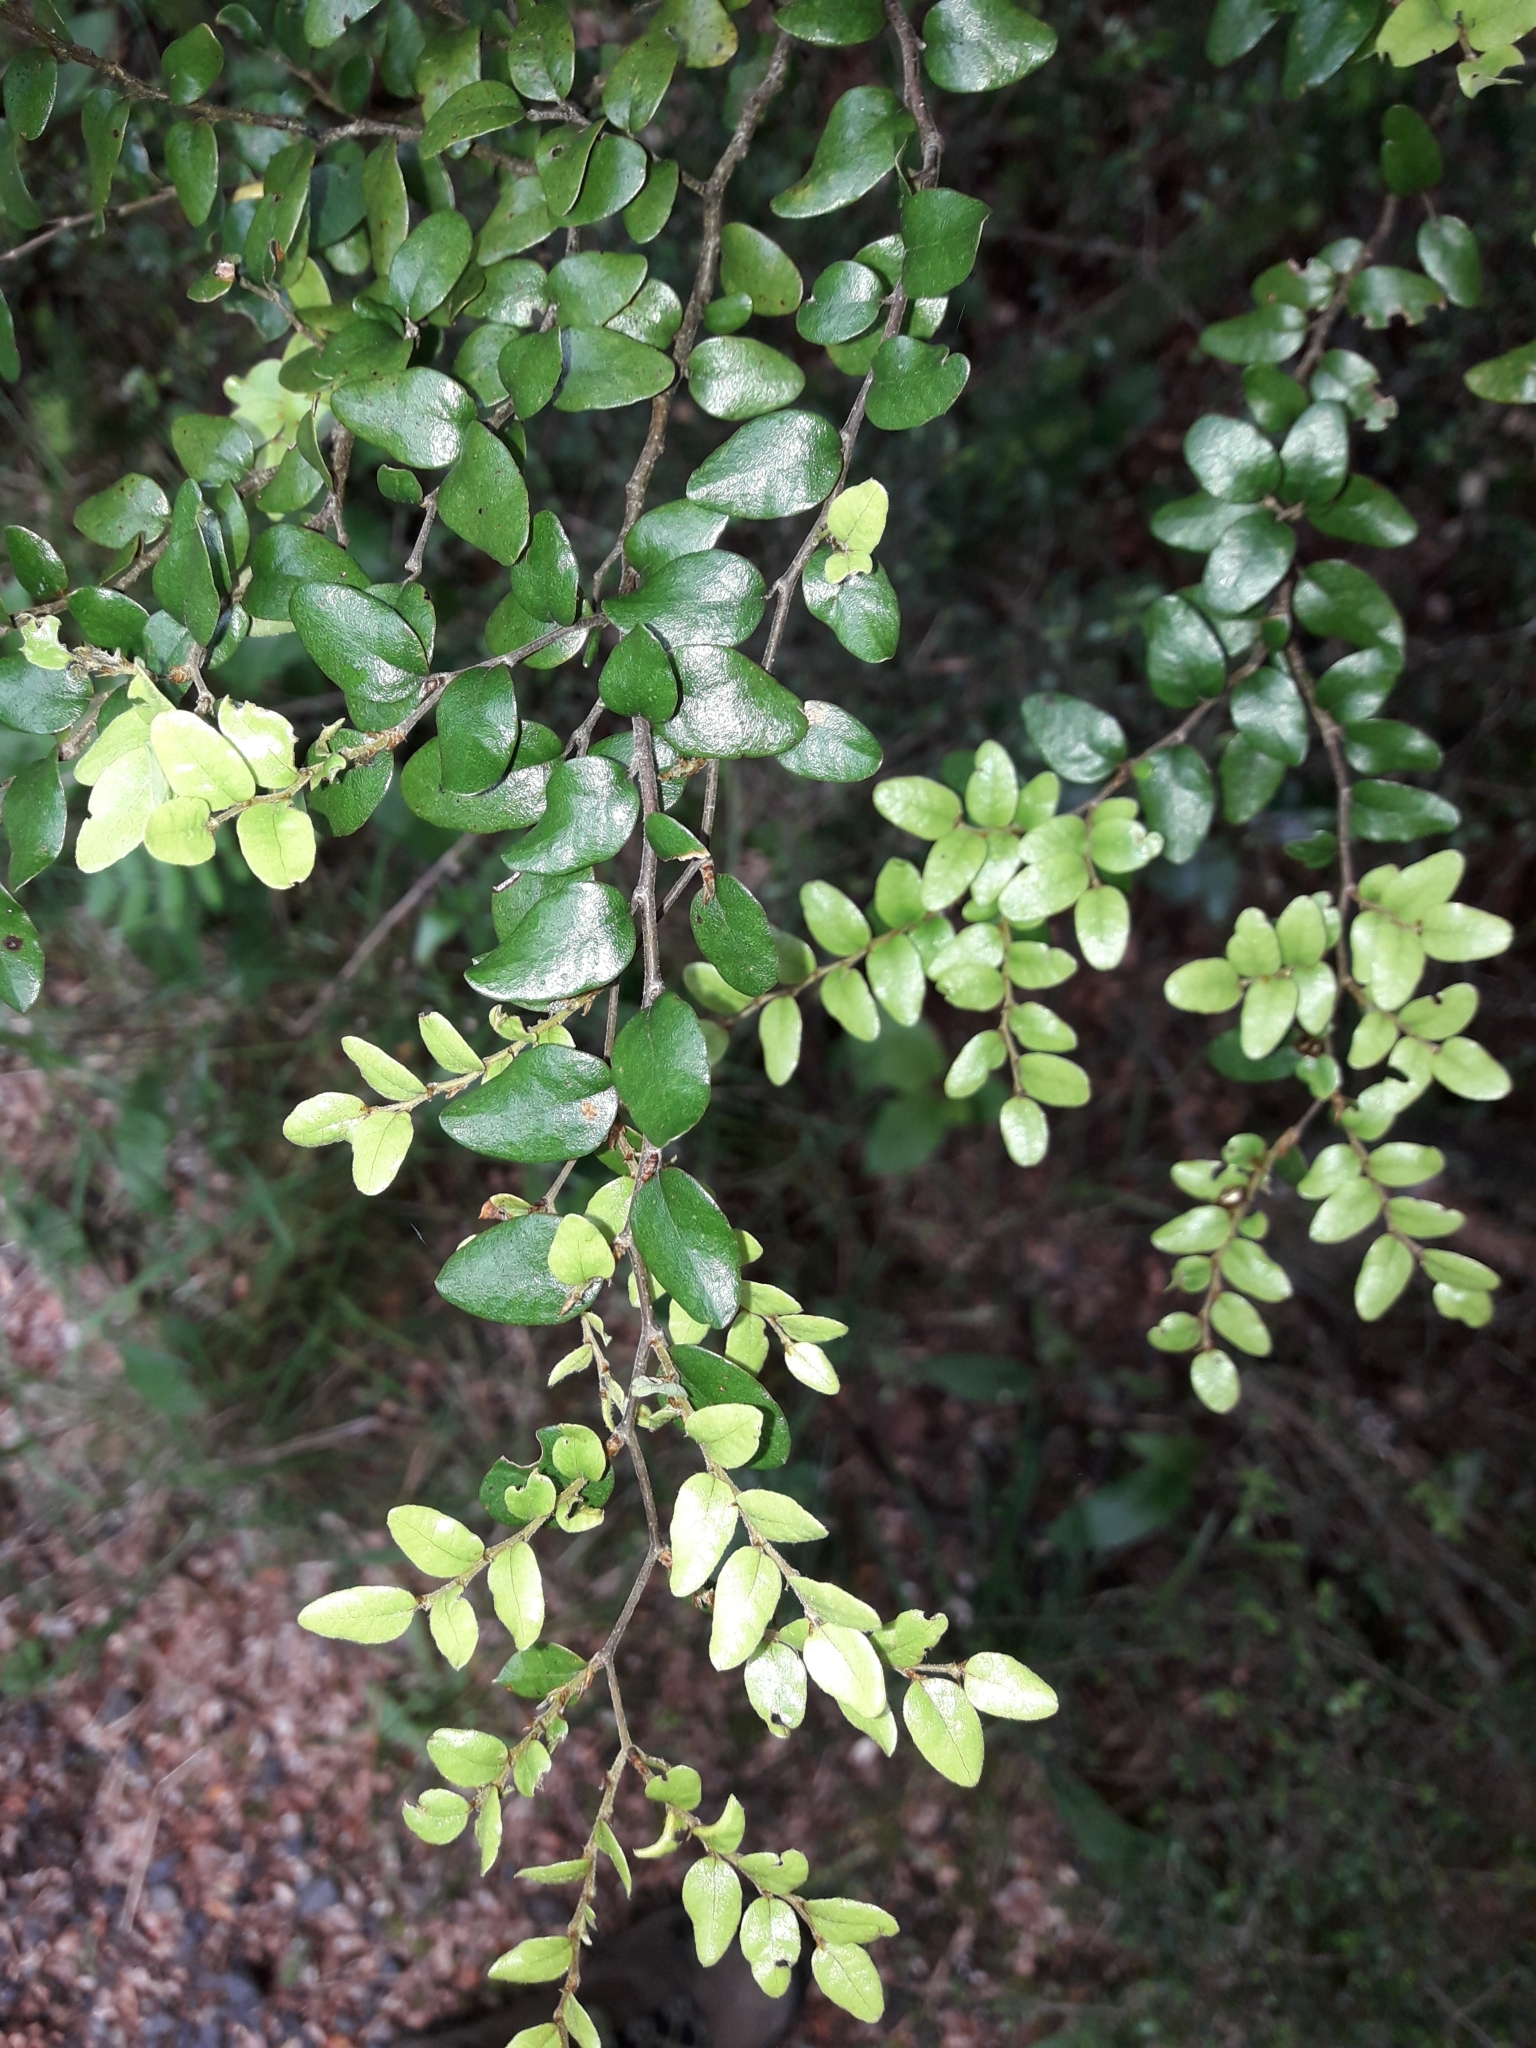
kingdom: Plantae
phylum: Tracheophyta
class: Magnoliopsida
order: Fagales
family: Nothofagaceae
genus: Nothofagus
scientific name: Nothofagus cliffortioides
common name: Mountain beech
